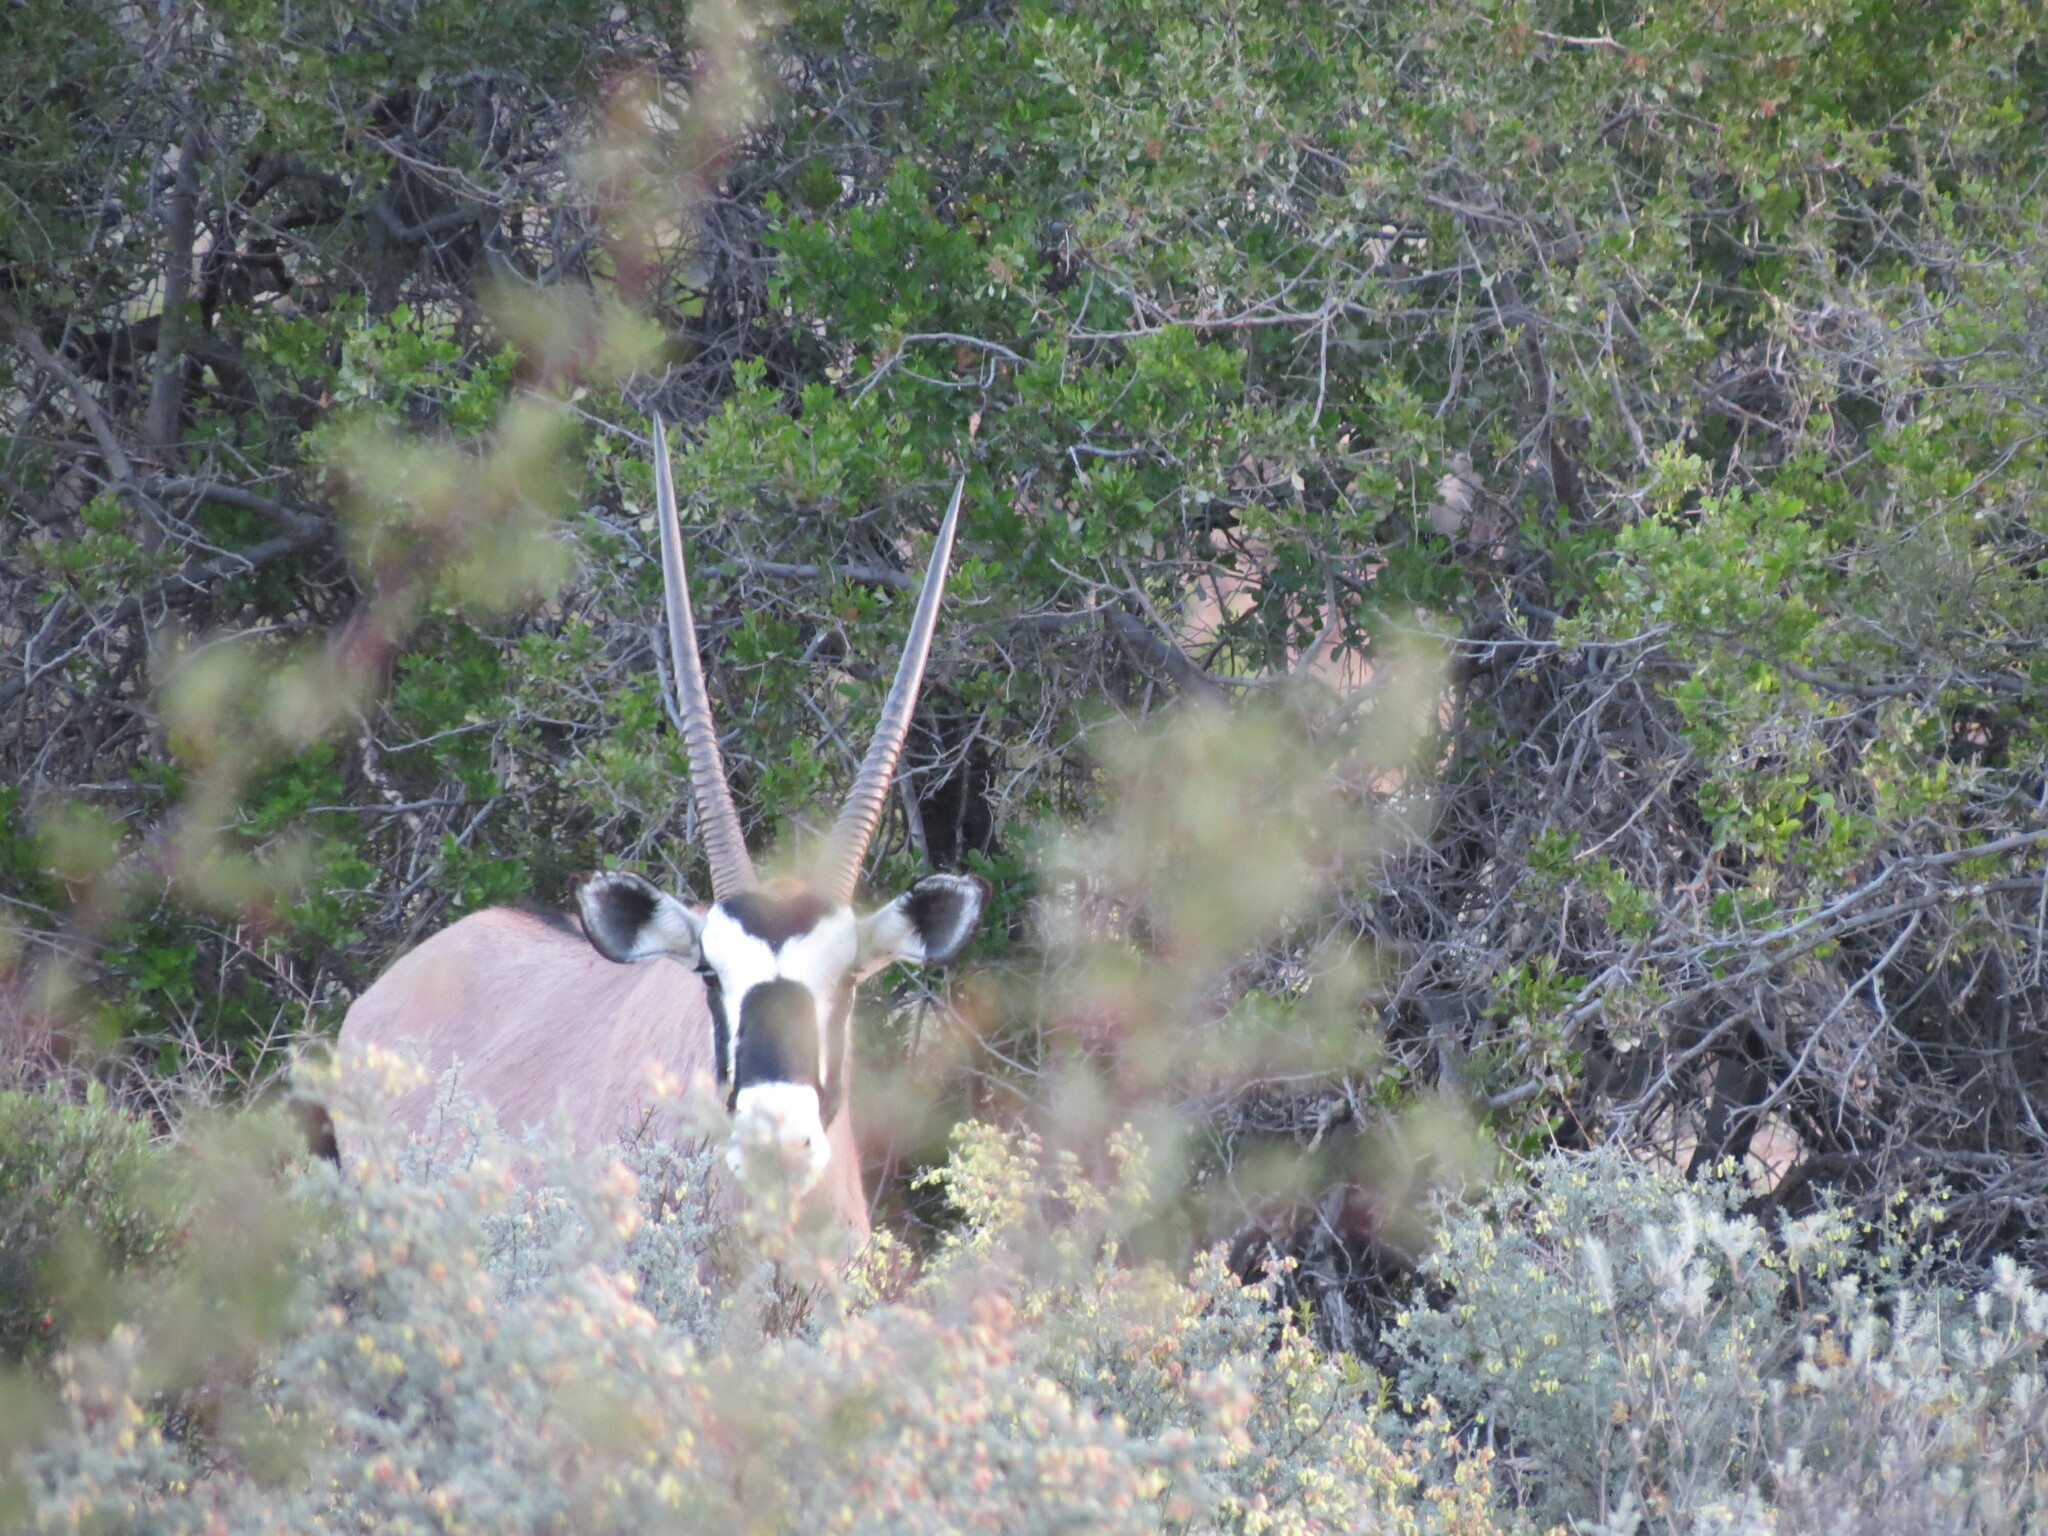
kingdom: Animalia
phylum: Chordata
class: Mammalia
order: Artiodactyla
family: Bovidae
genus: Oryx
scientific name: Oryx gazella
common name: Gemsbok
